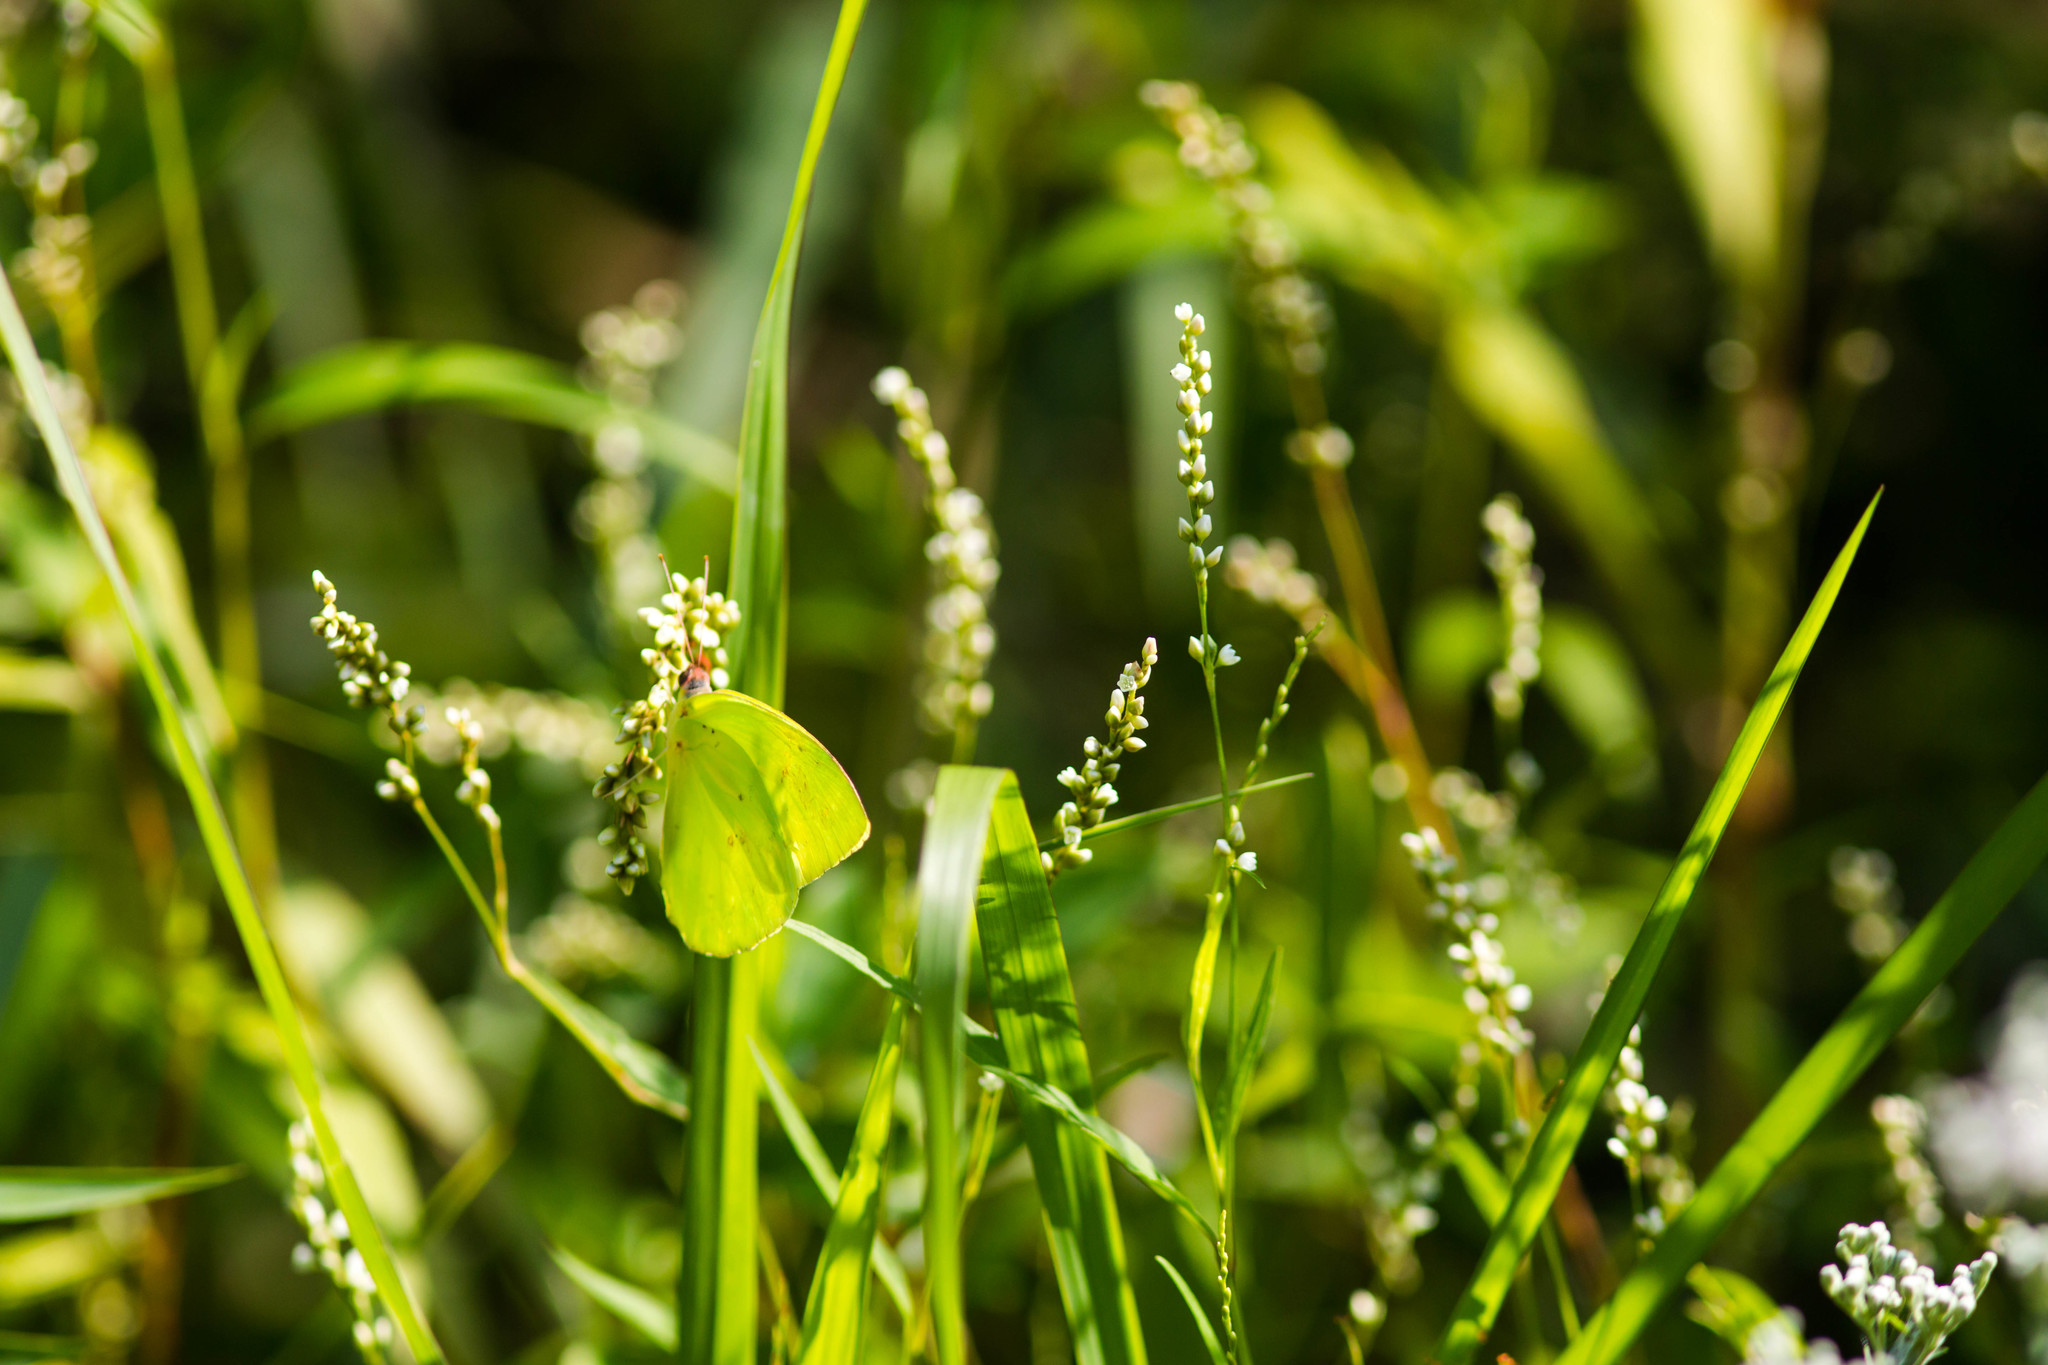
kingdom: Animalia
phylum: Arthropoda
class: Insecta
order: Lepidoptera
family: Pieridae
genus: Phoebis
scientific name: Phoebis sennae
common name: Cloudless sulphur
